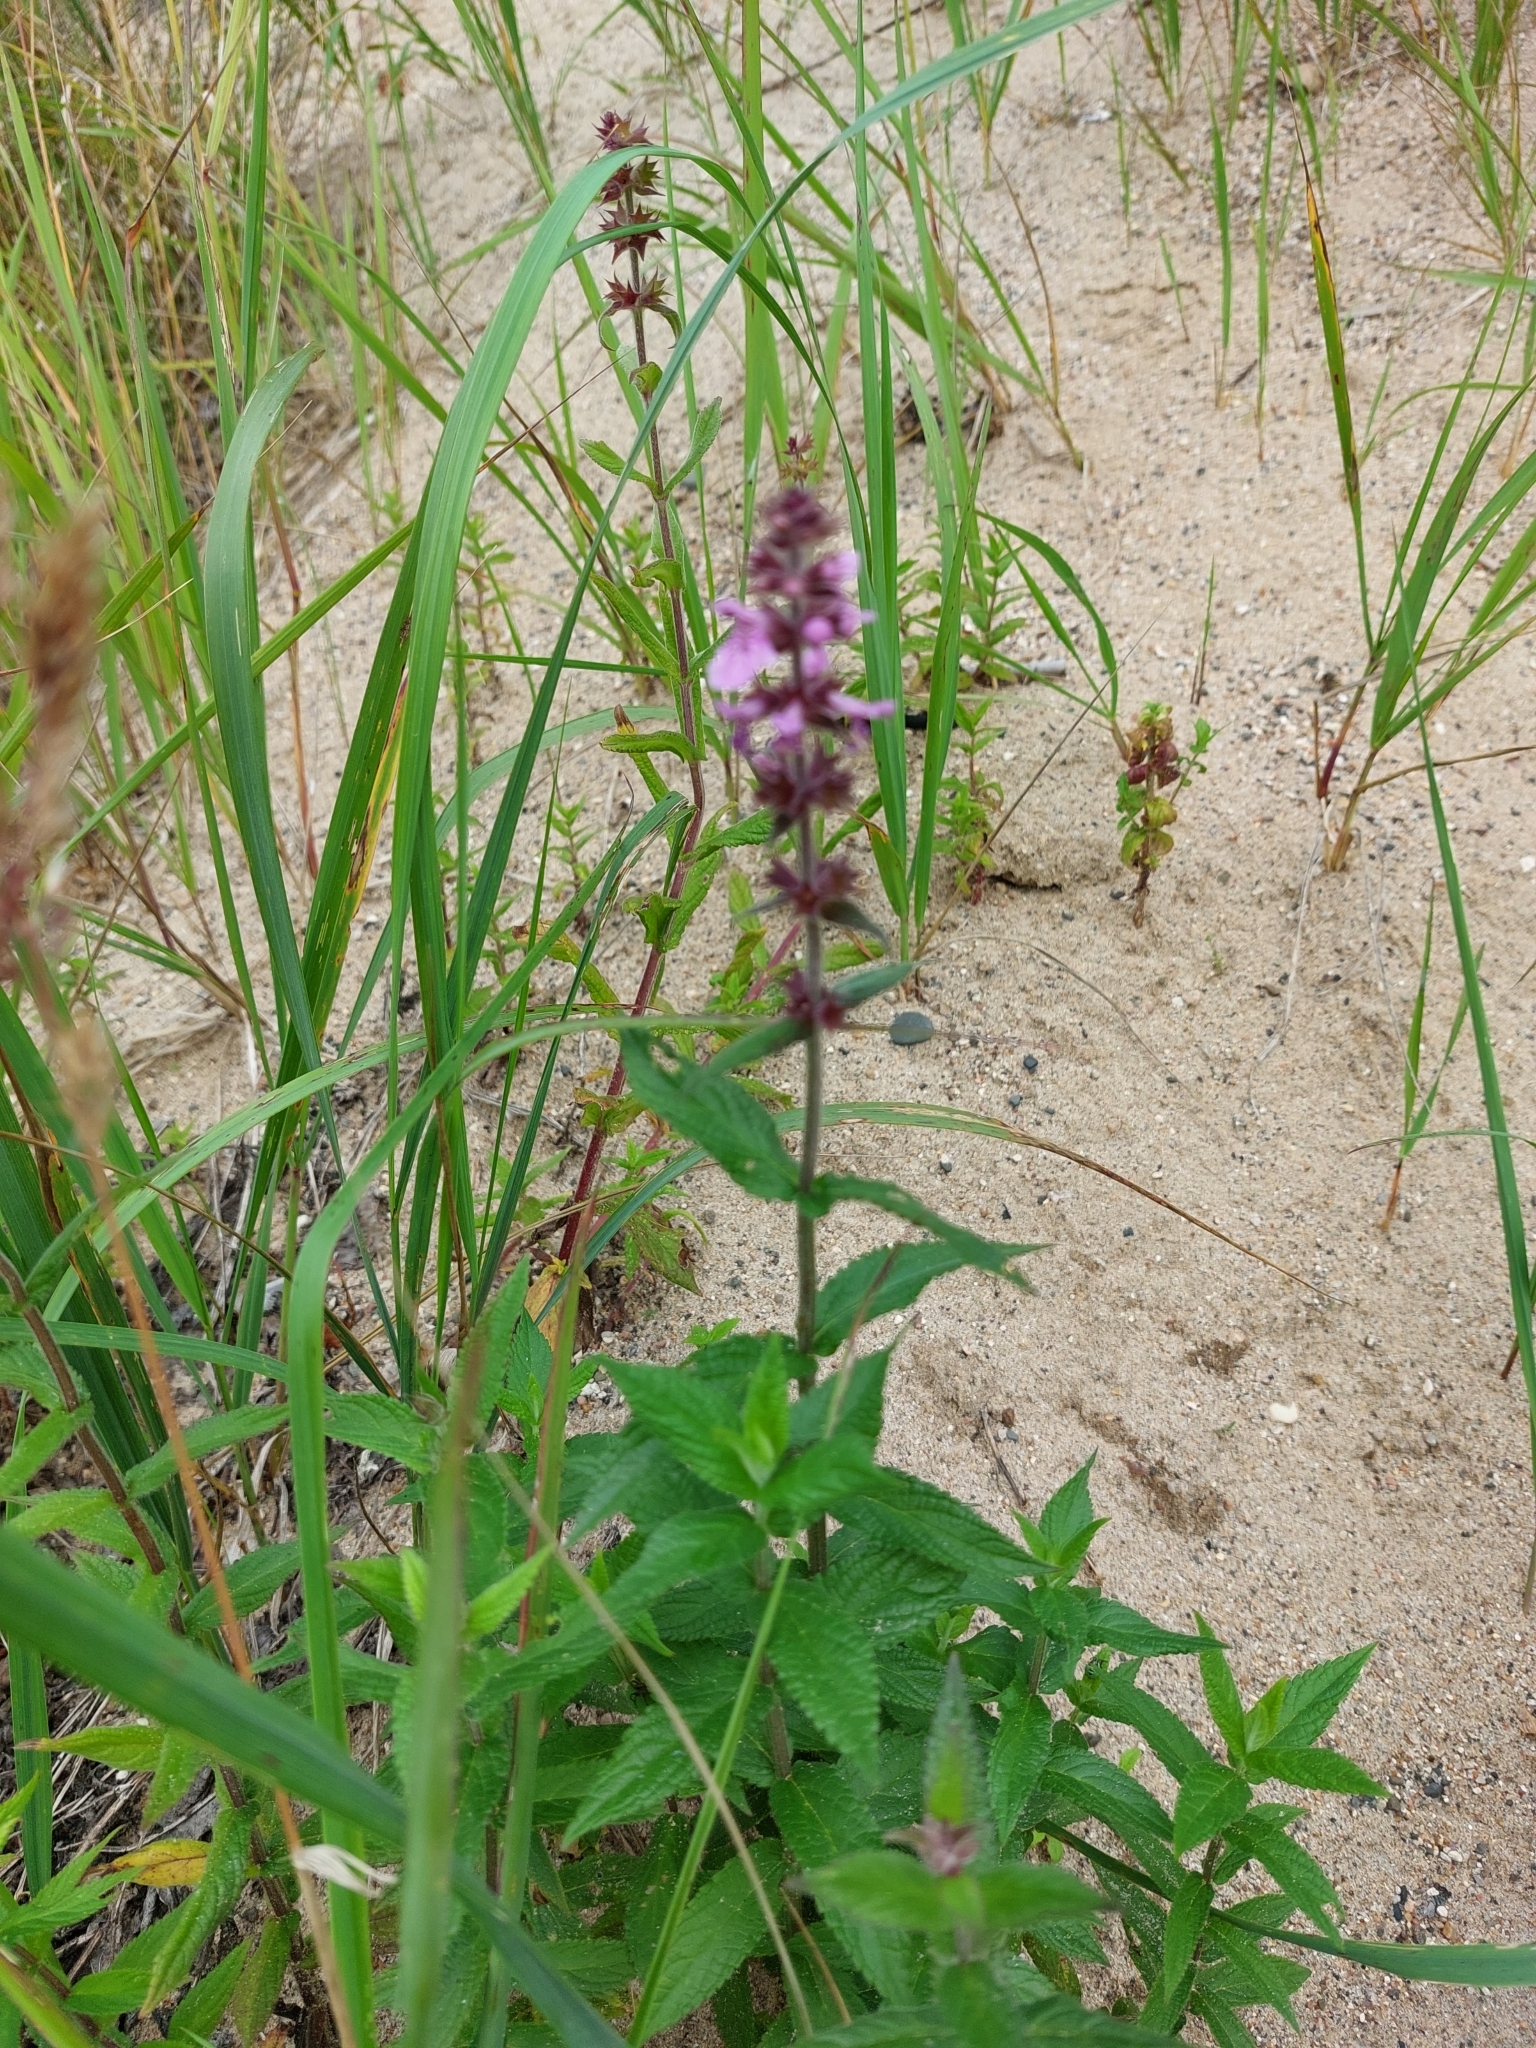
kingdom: Plantae
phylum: Tracheophyta
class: Magnoliopsida
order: Lamiales
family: Lamiaceae
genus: Stachys
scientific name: Stachys palustris
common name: Marsh woundwort
